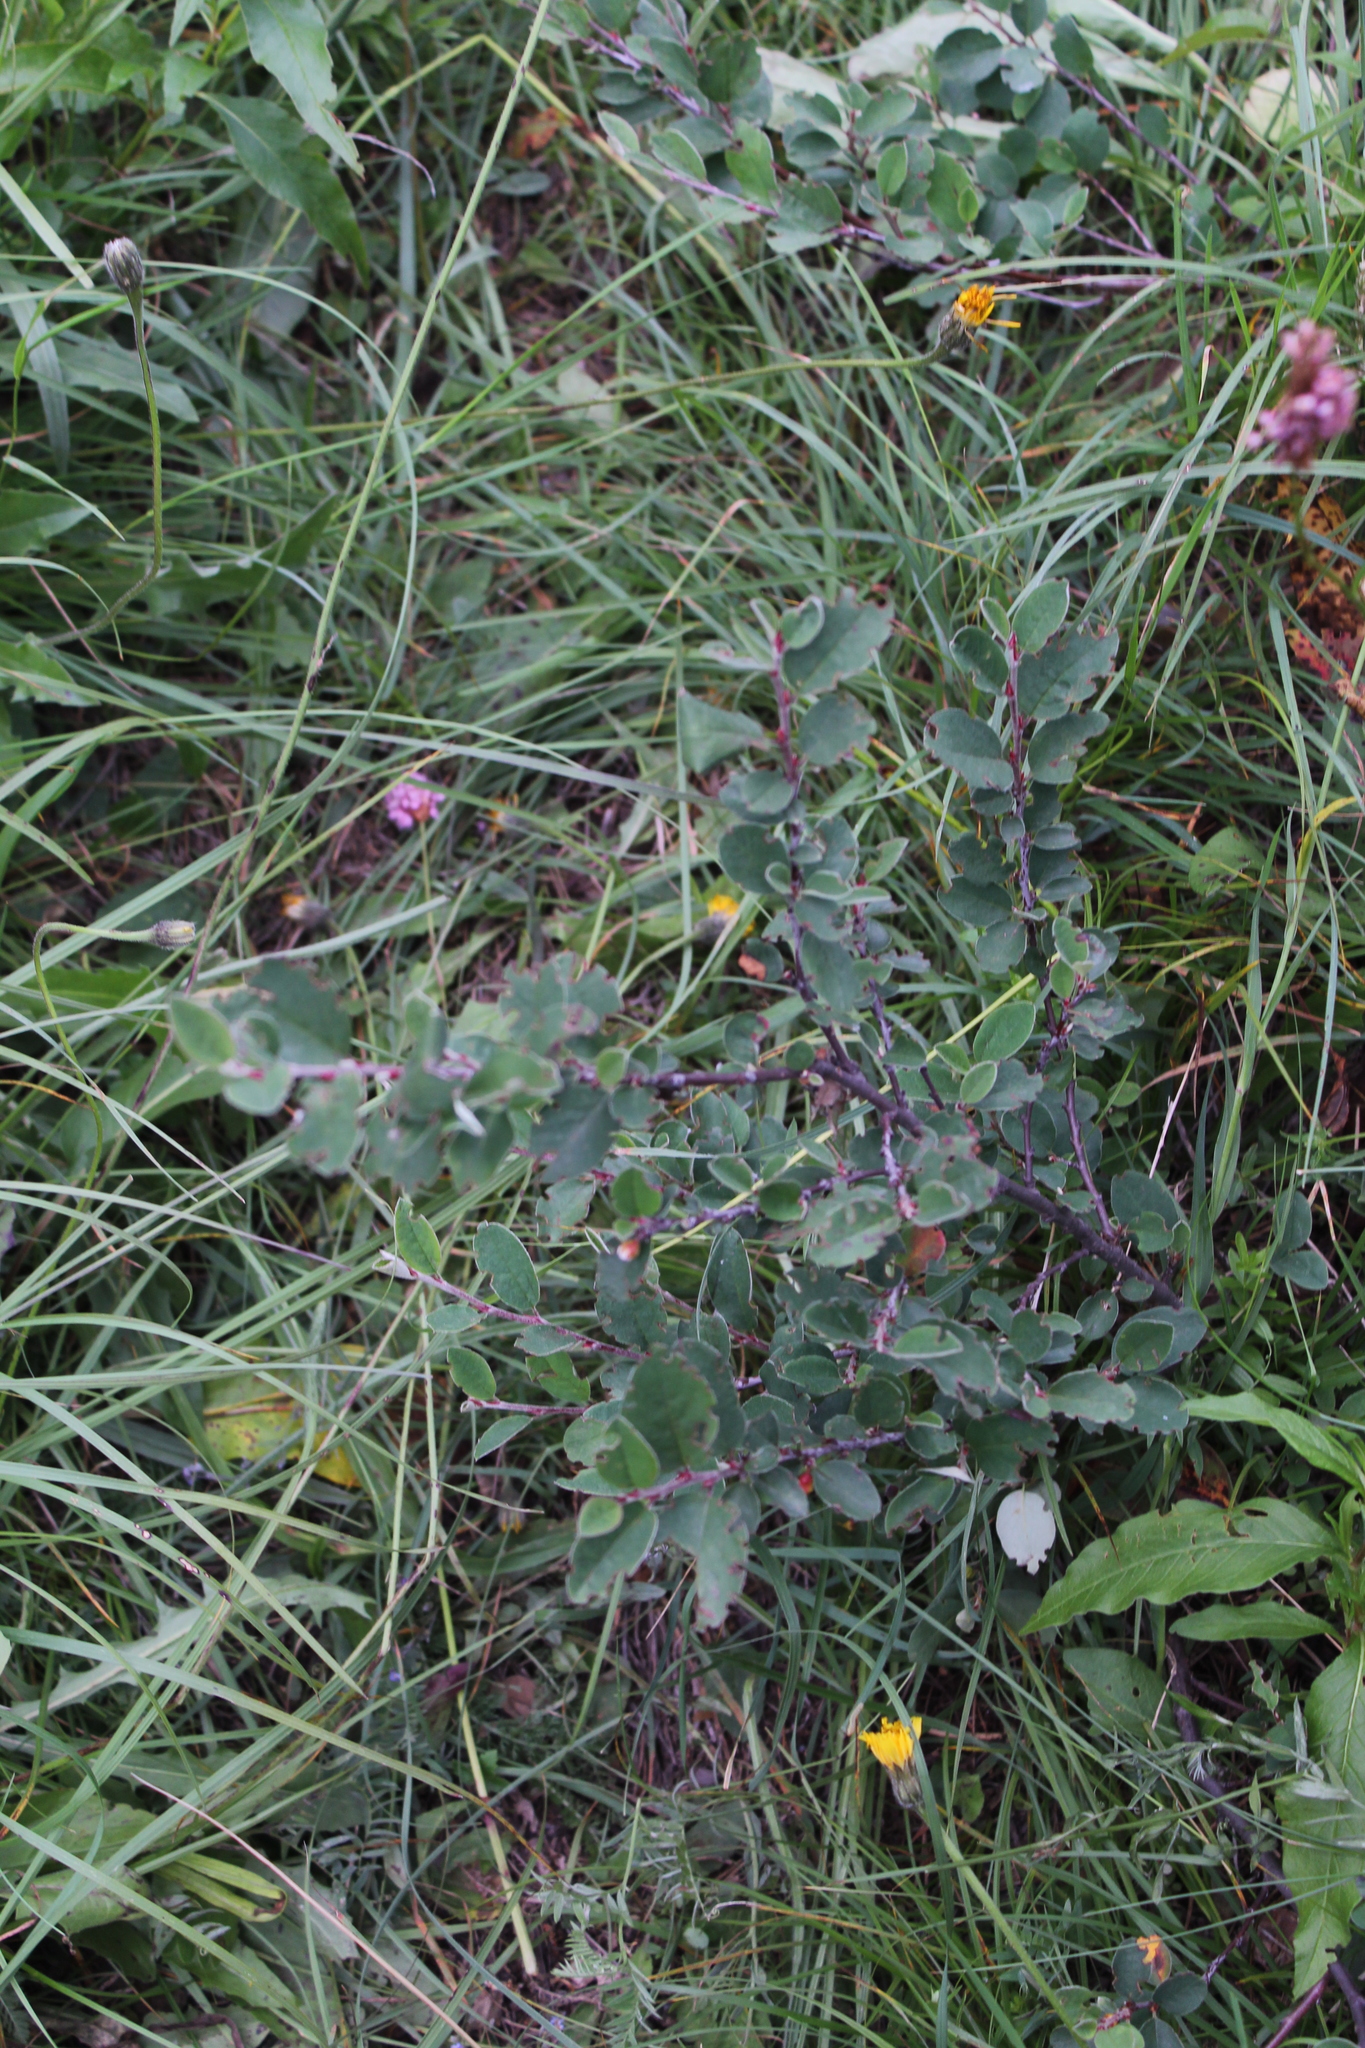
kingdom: Plantae
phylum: Tracheophyta
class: Magnoliopsida
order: Rosales
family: Rosaceae
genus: Cotoneaster
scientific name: Cotoneaster integerrimus
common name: Wild cotoneaster
